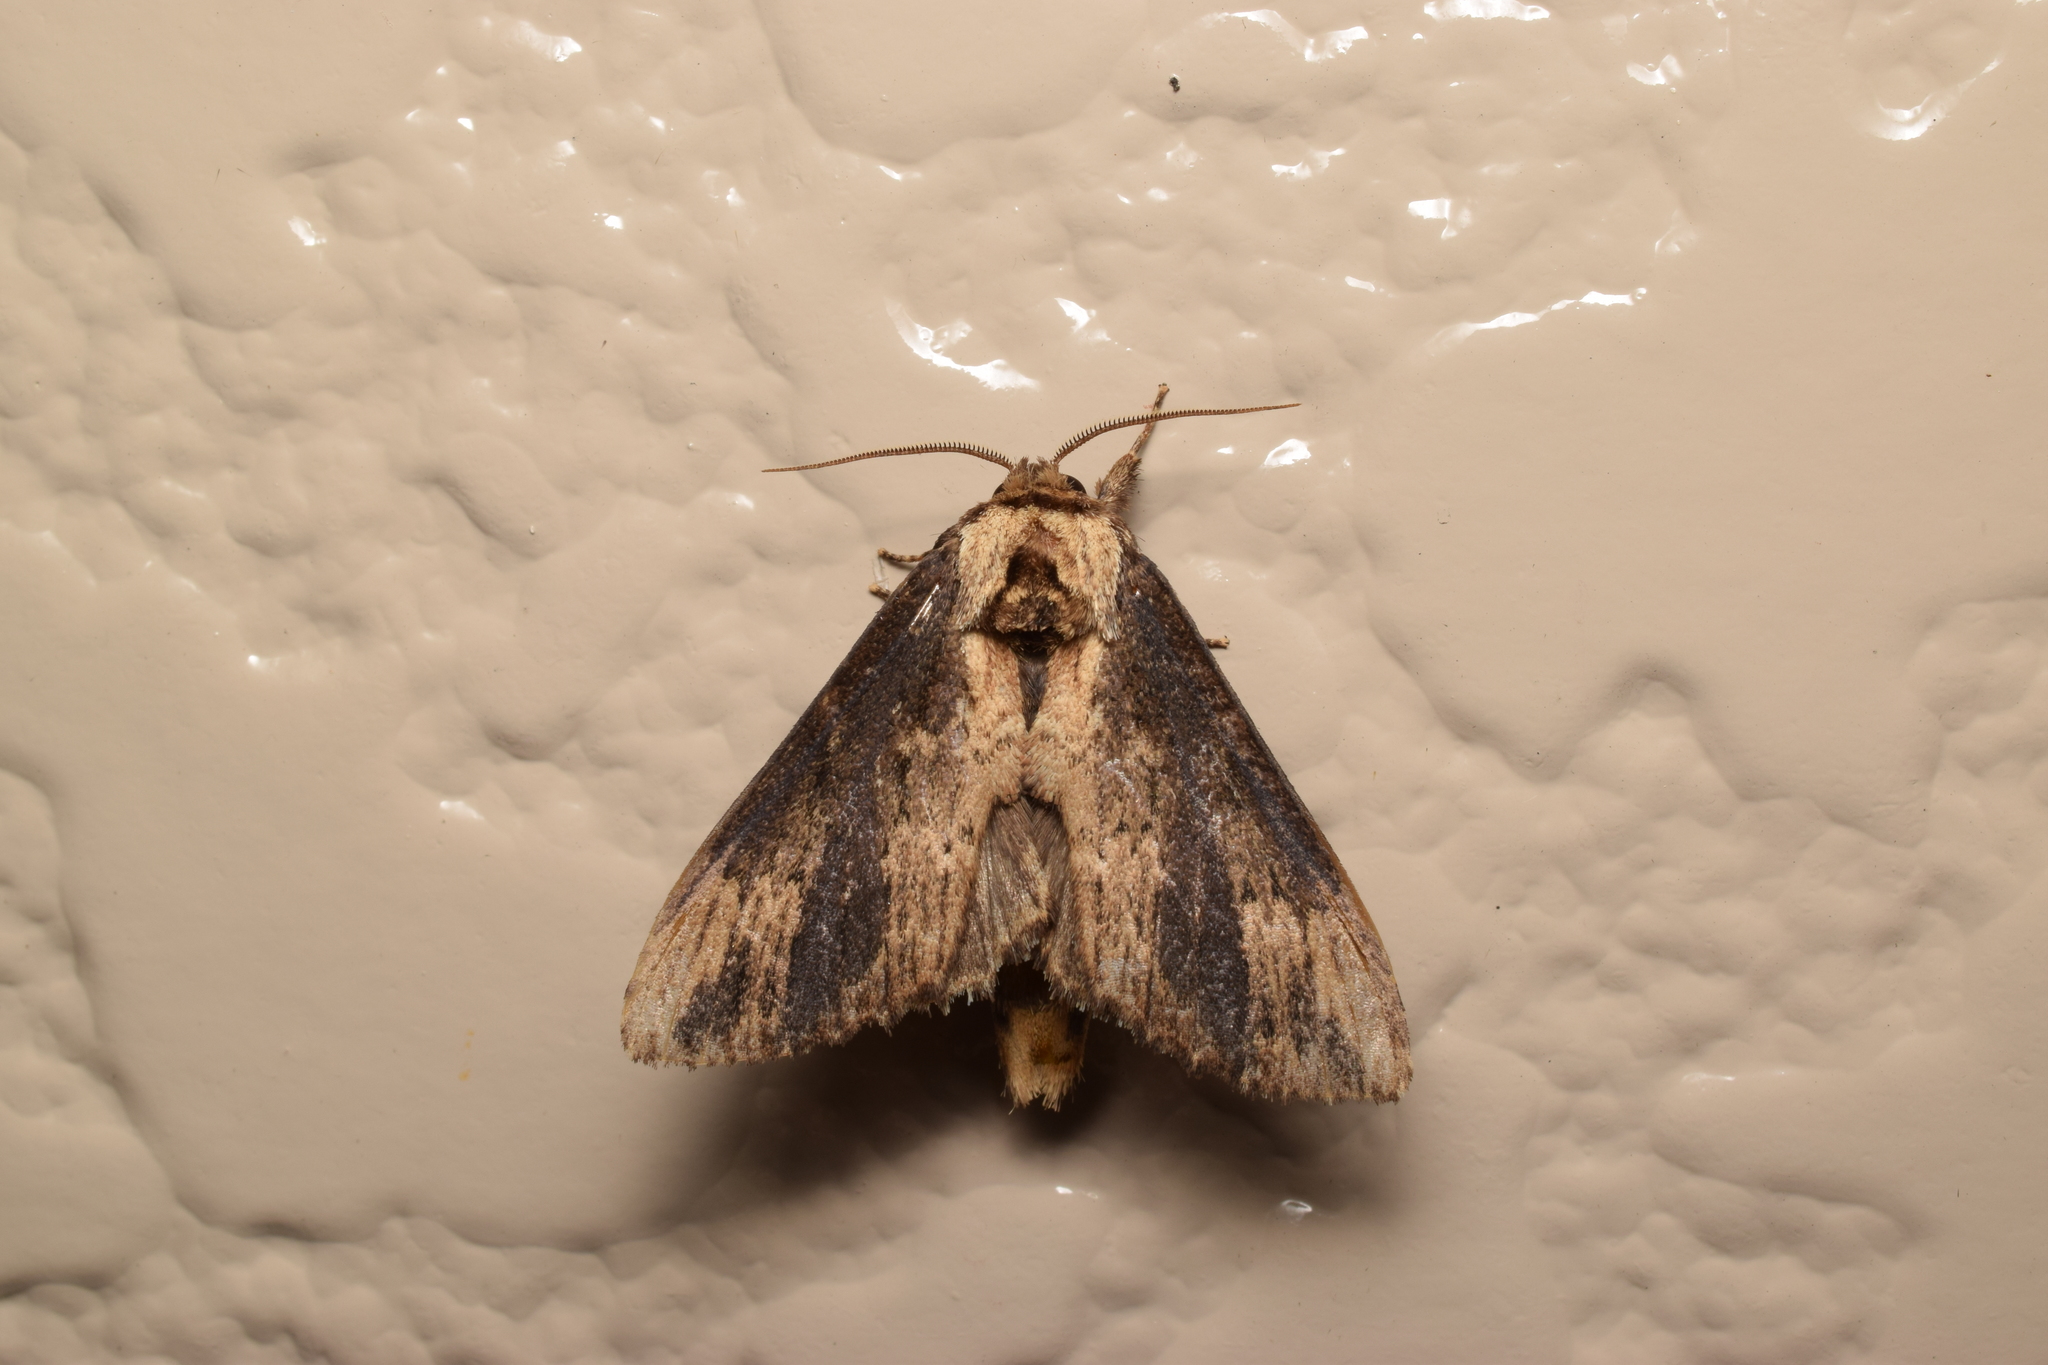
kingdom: Animalia
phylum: Arthropoda
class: Insecta
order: Lepidoptera
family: Notodontidae
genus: Hexafrenum
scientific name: Hexafrenum leucodera
